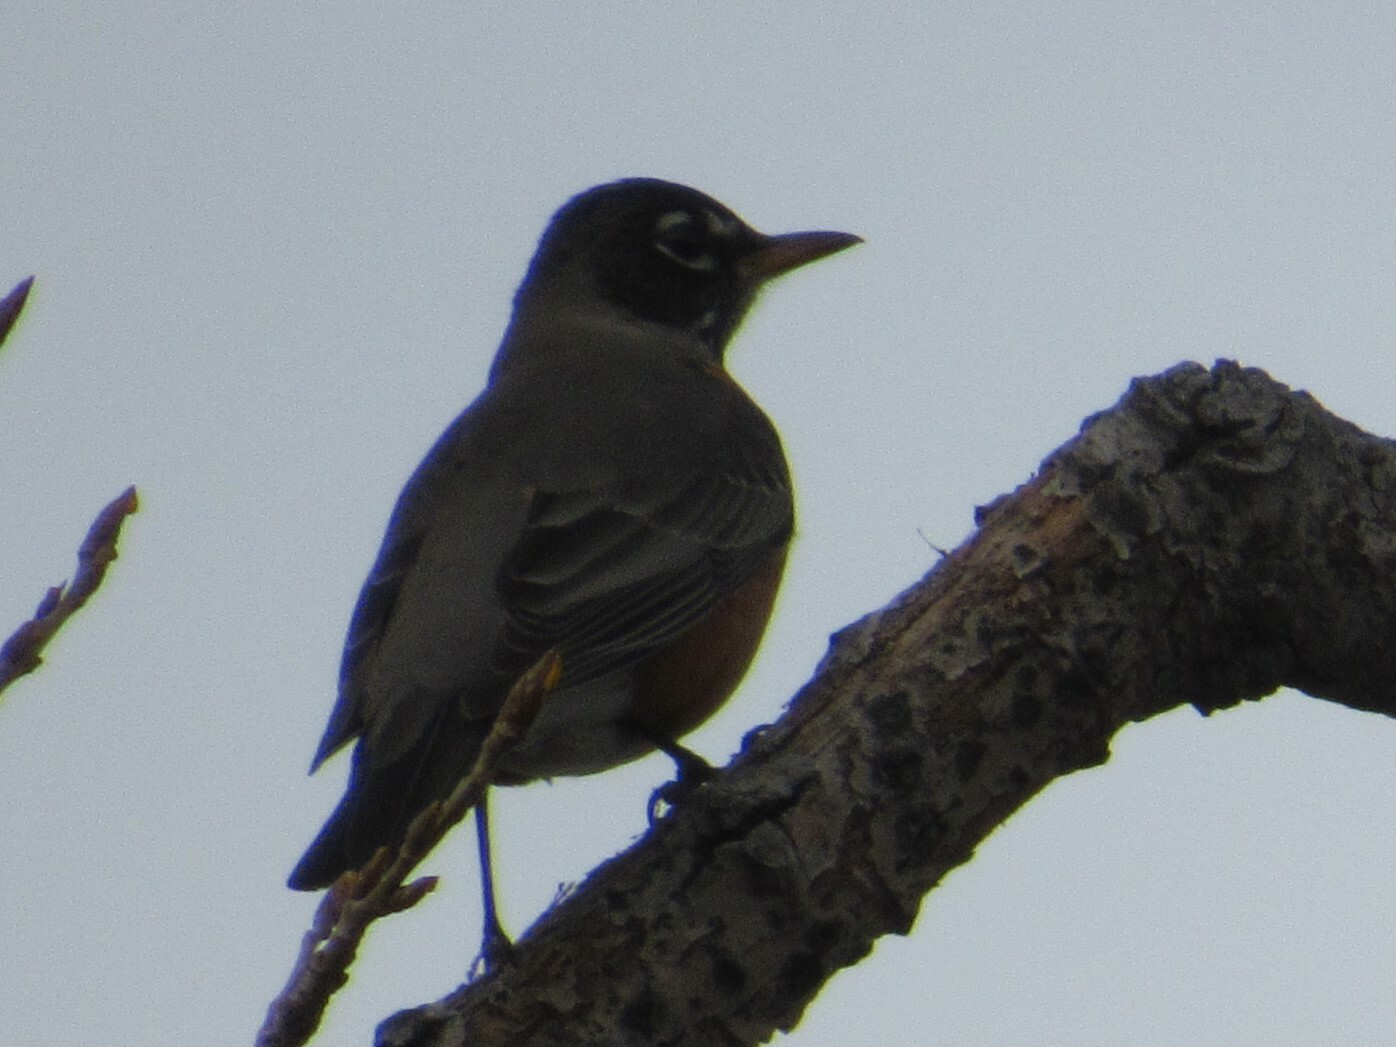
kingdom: Animalia
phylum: Chordata
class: Aves
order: Passeriformes
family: Turdidae
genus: Turdus
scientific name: Turdus migratorius
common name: American robin
